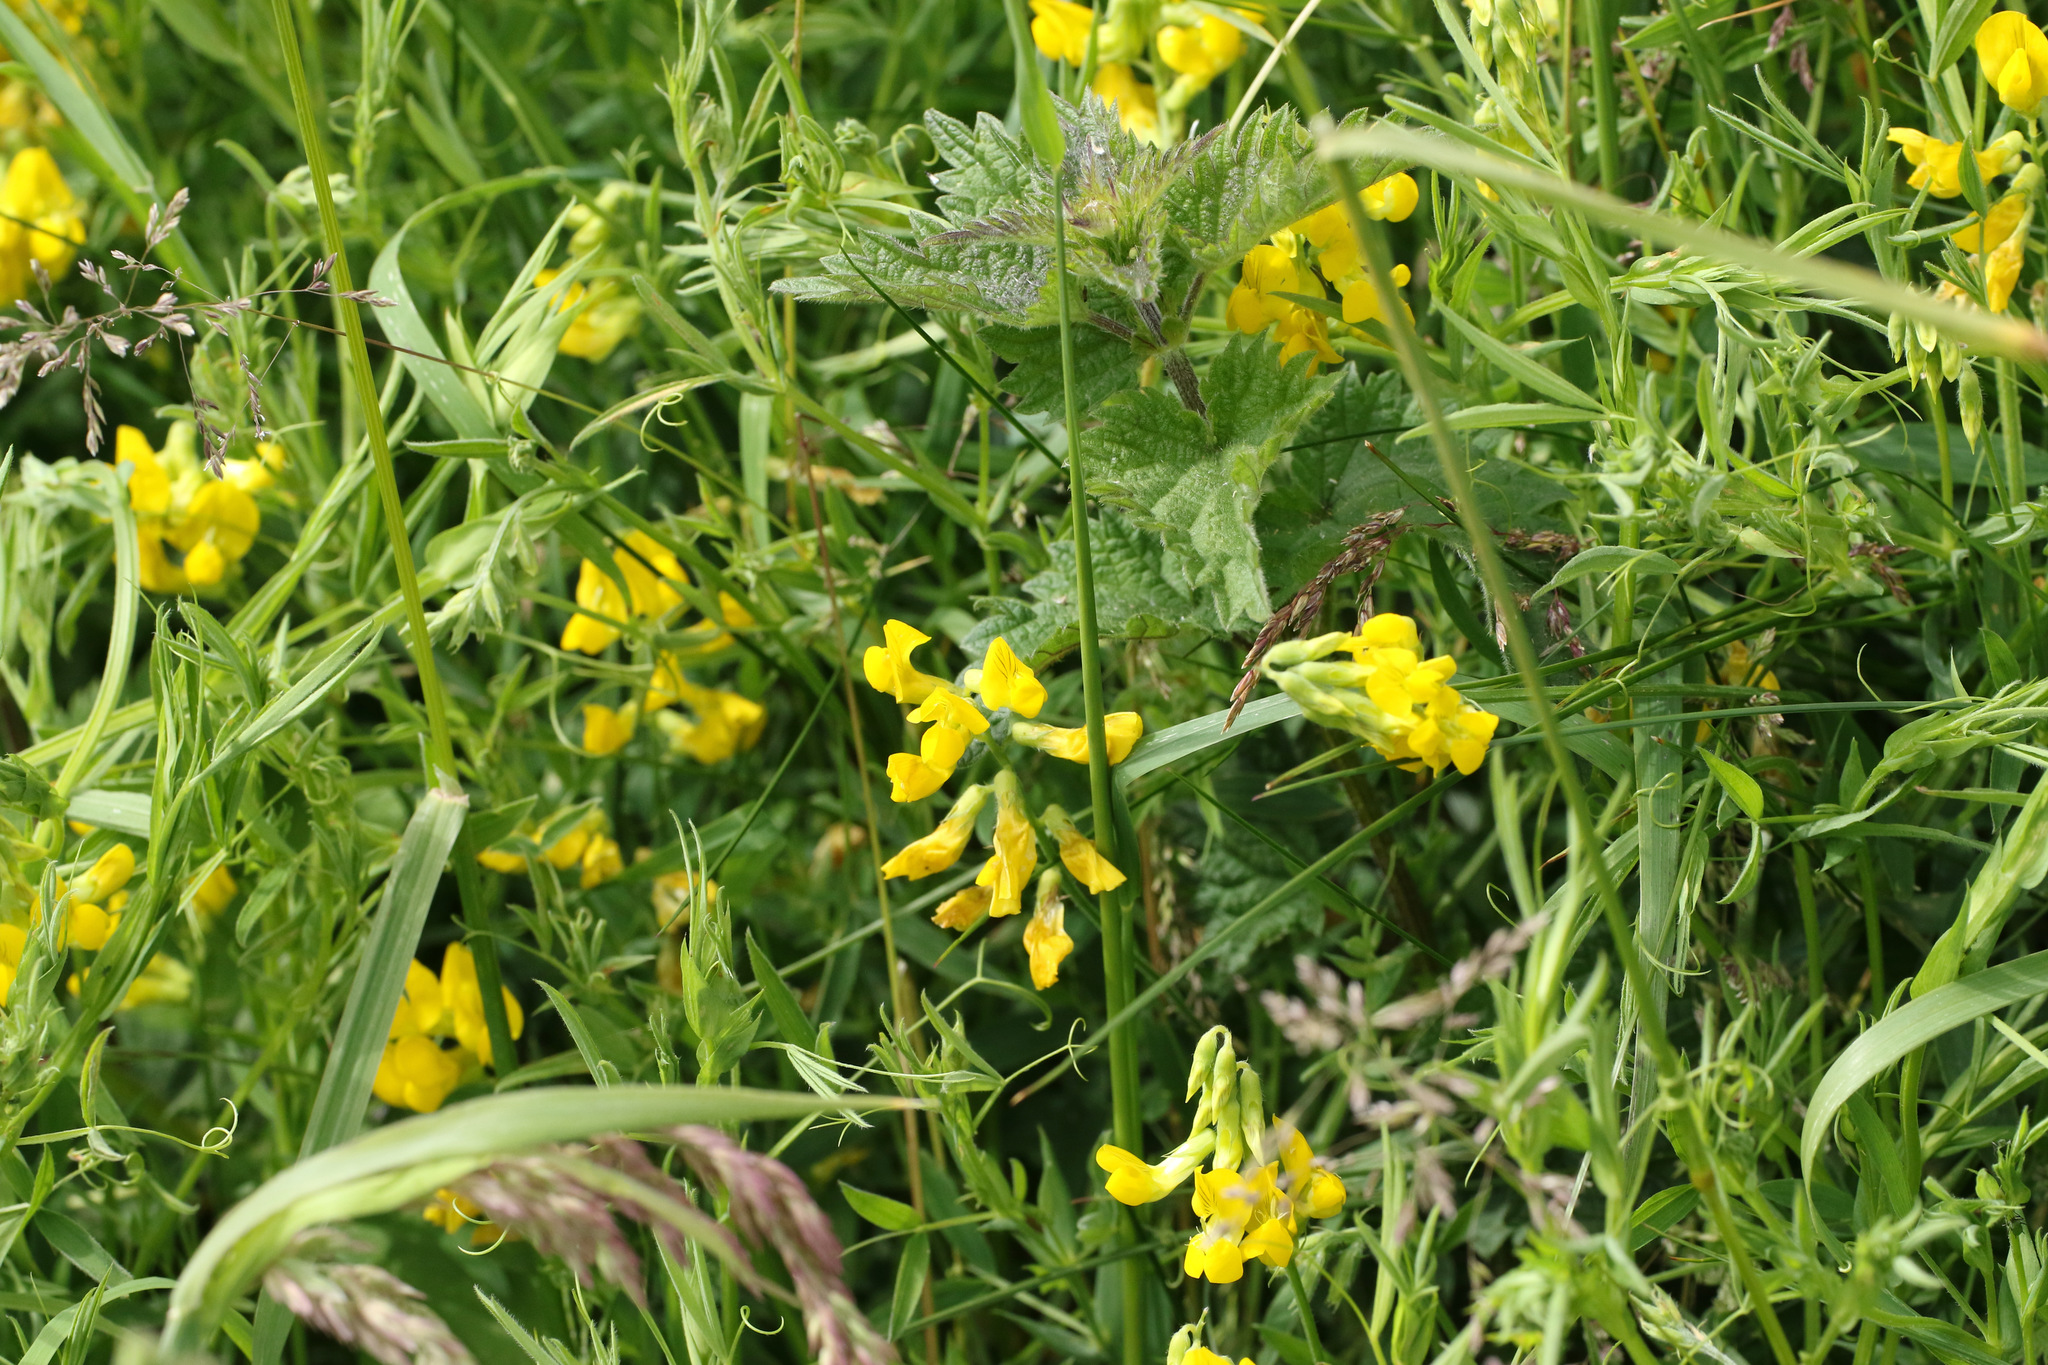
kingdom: Plantae
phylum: Tracheophyta
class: Magnoliopsida
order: Fabales
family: Fabaceae
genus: Lathyrus
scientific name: Lathyrus pratensis
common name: Meadow vetchling
